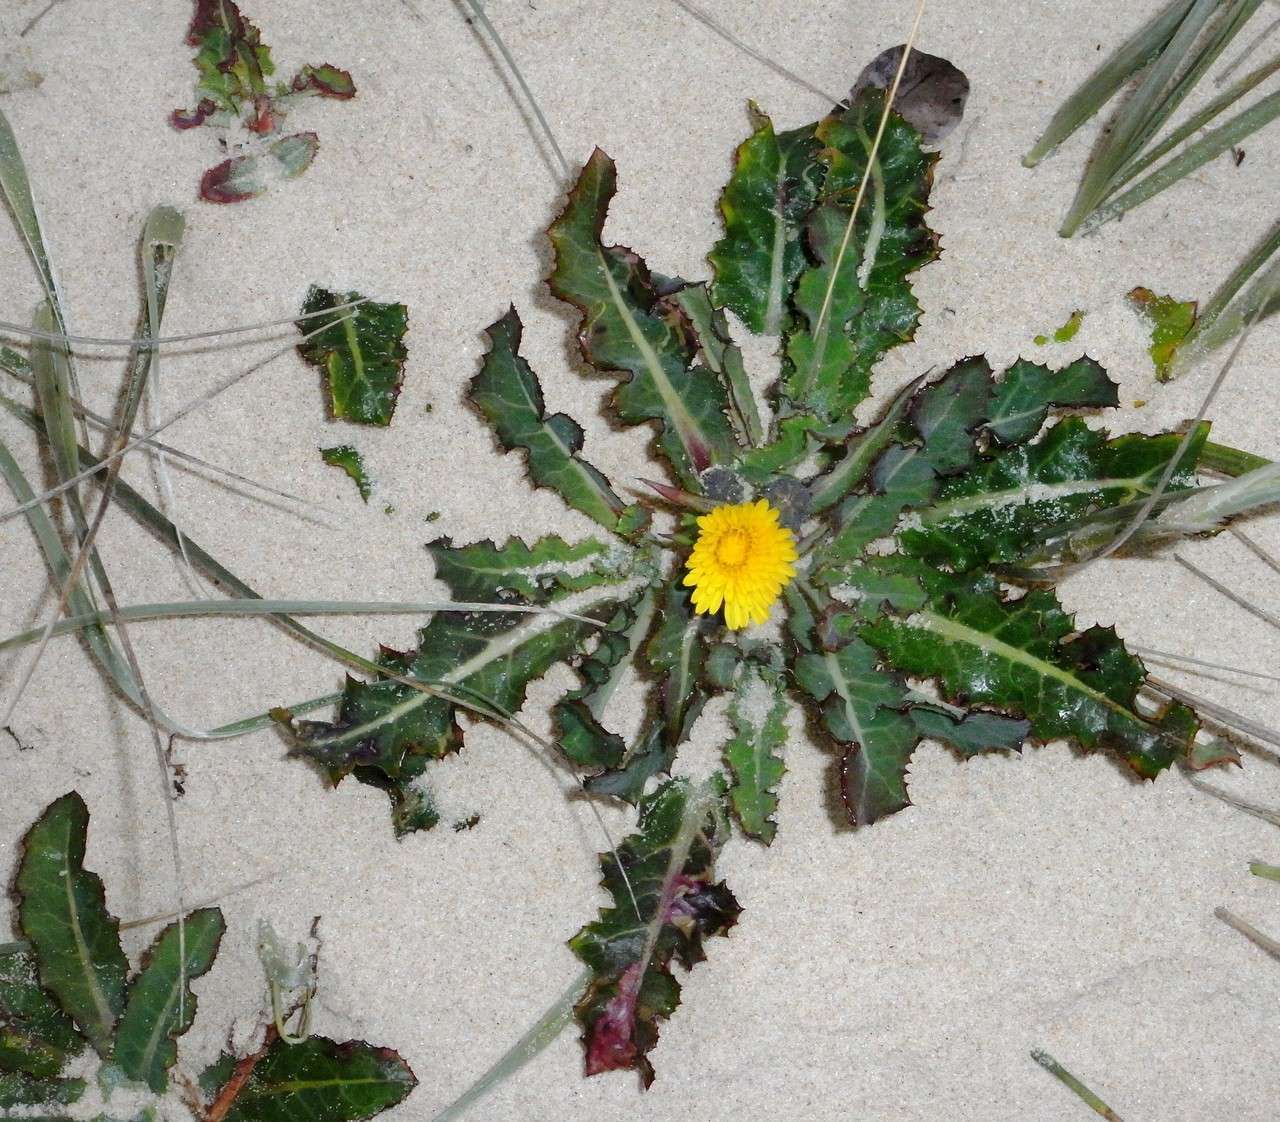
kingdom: Plantae
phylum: Tracheophyta
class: Magnoliopsida
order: Asterales
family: Asteraceae
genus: Sonchus
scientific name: Sonchus megalocarpus
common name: Dune thistle
